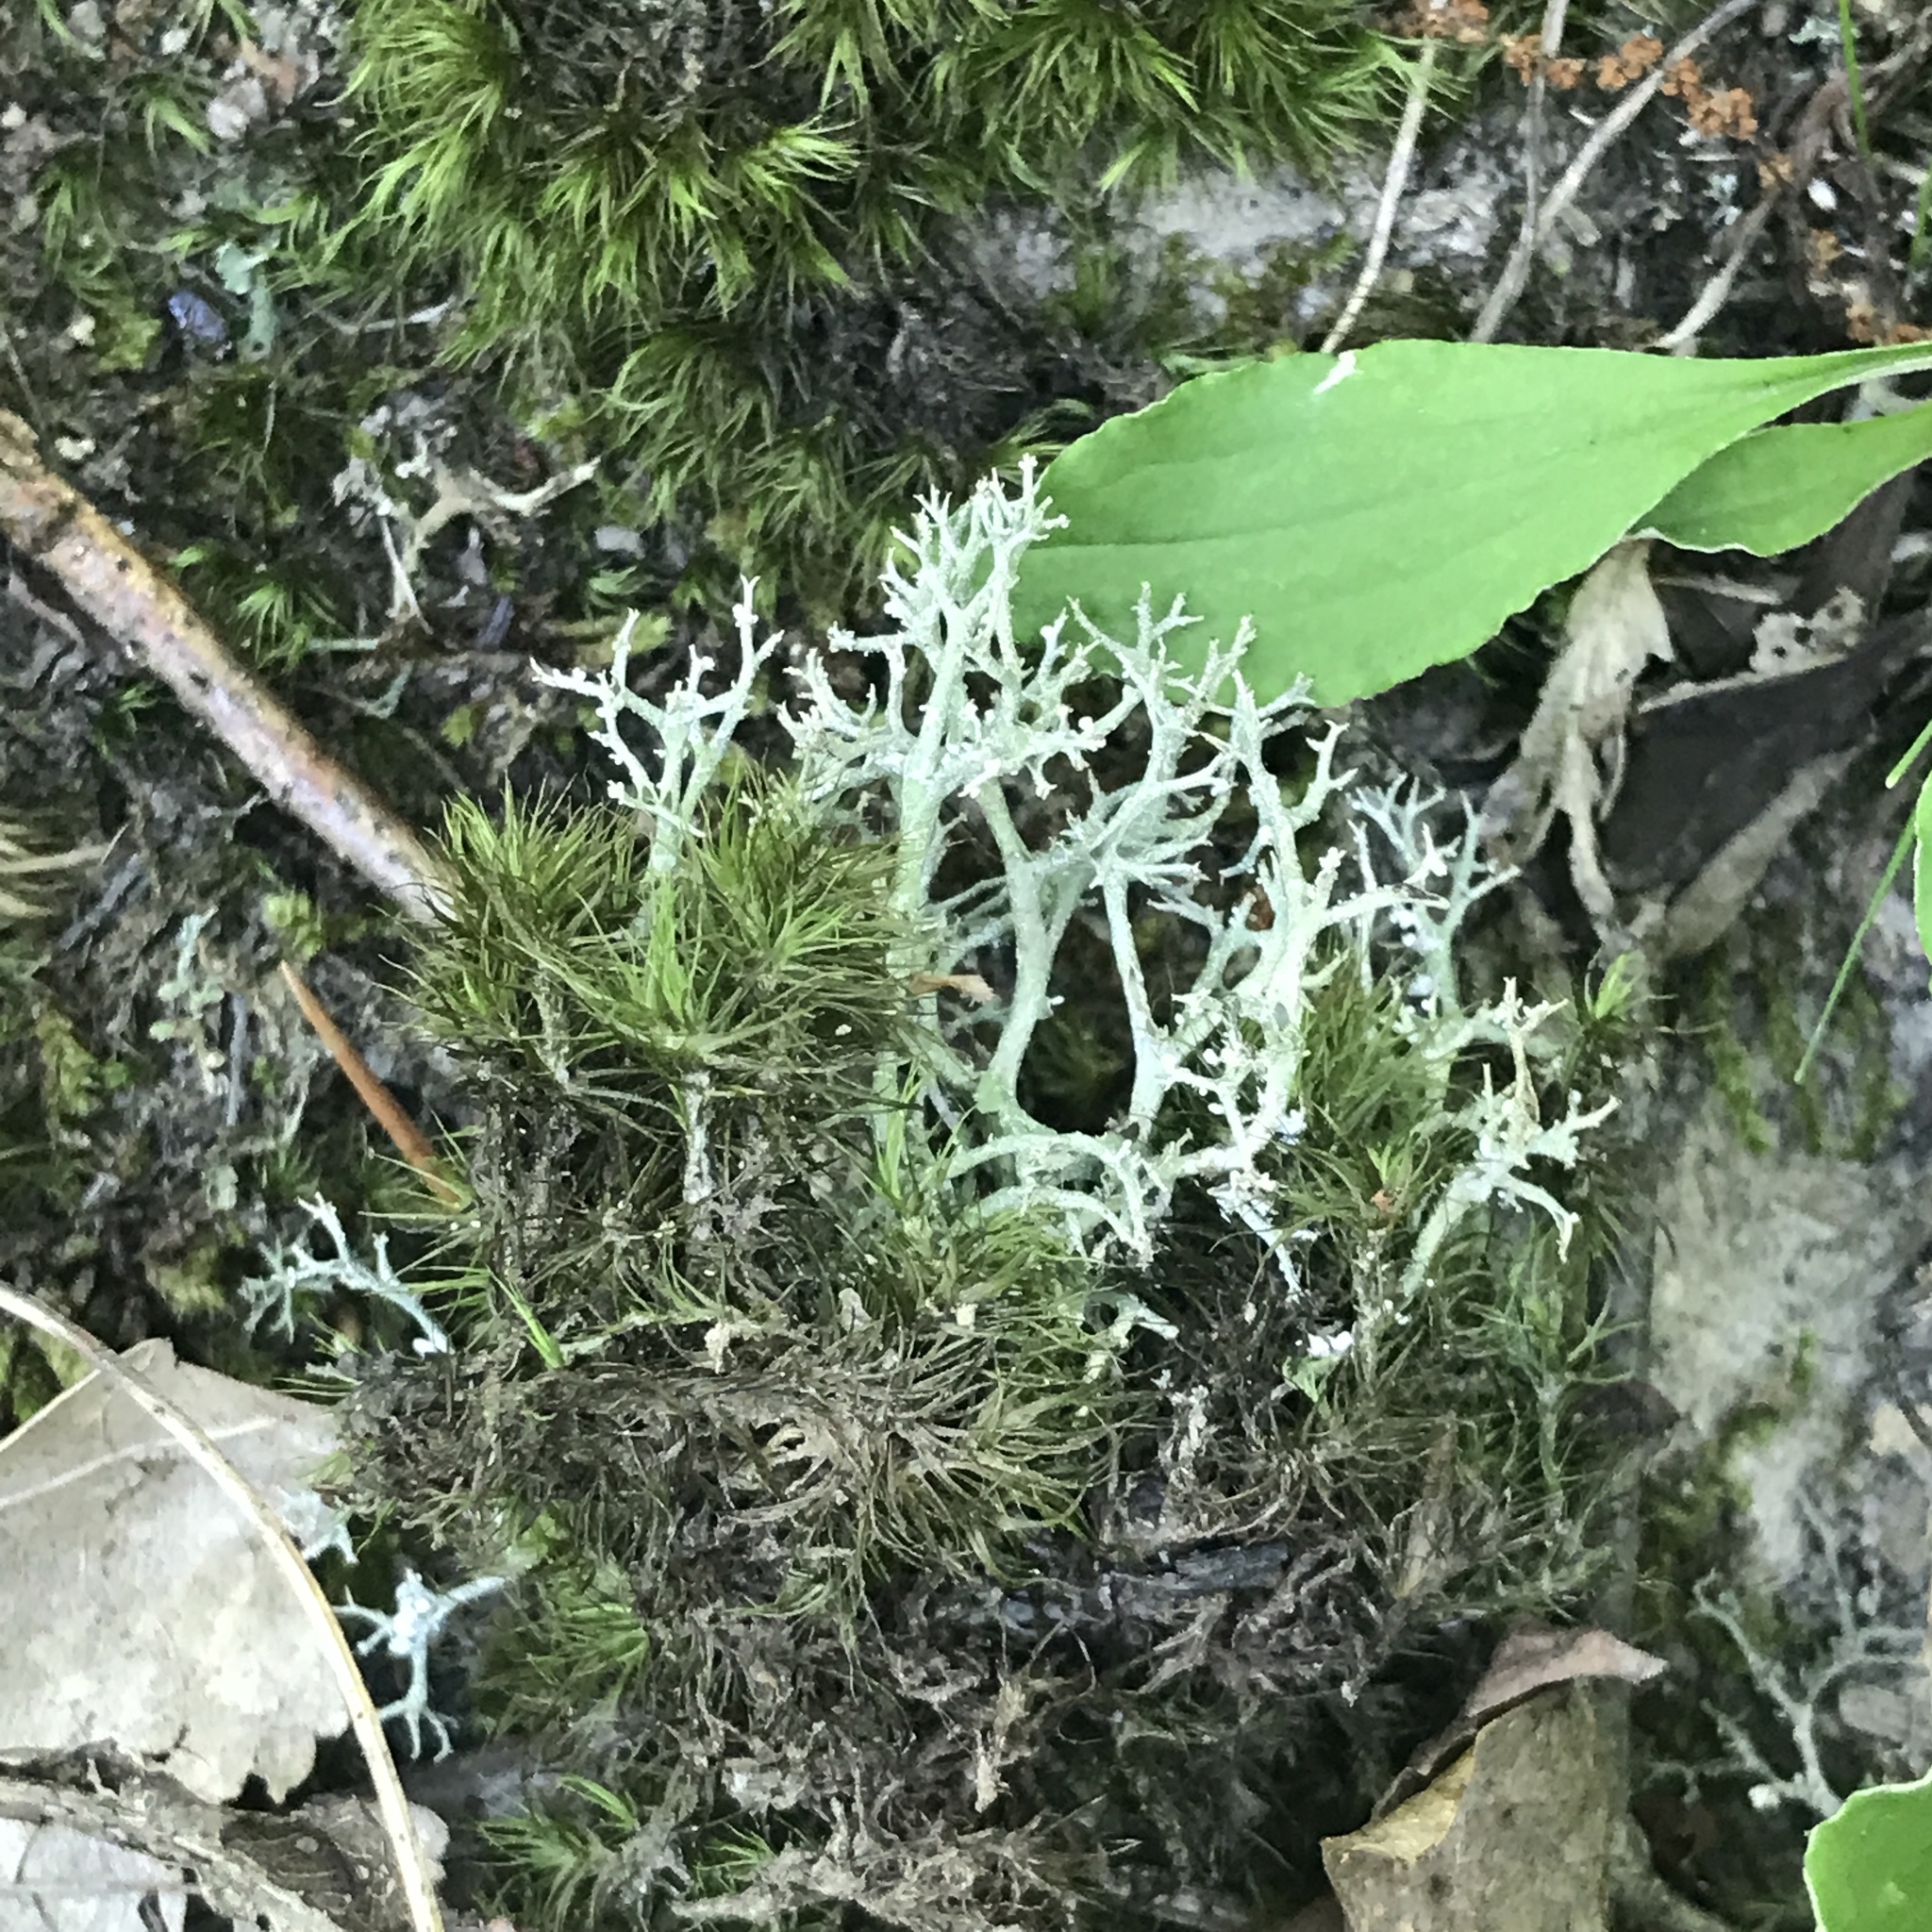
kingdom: Fungi
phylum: Ascomycota
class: Lecanoromycetes
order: Lecanorales
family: Cladoniaceae
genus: Cladonia
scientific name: Cladonia furcata
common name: Many-forked cladonia
